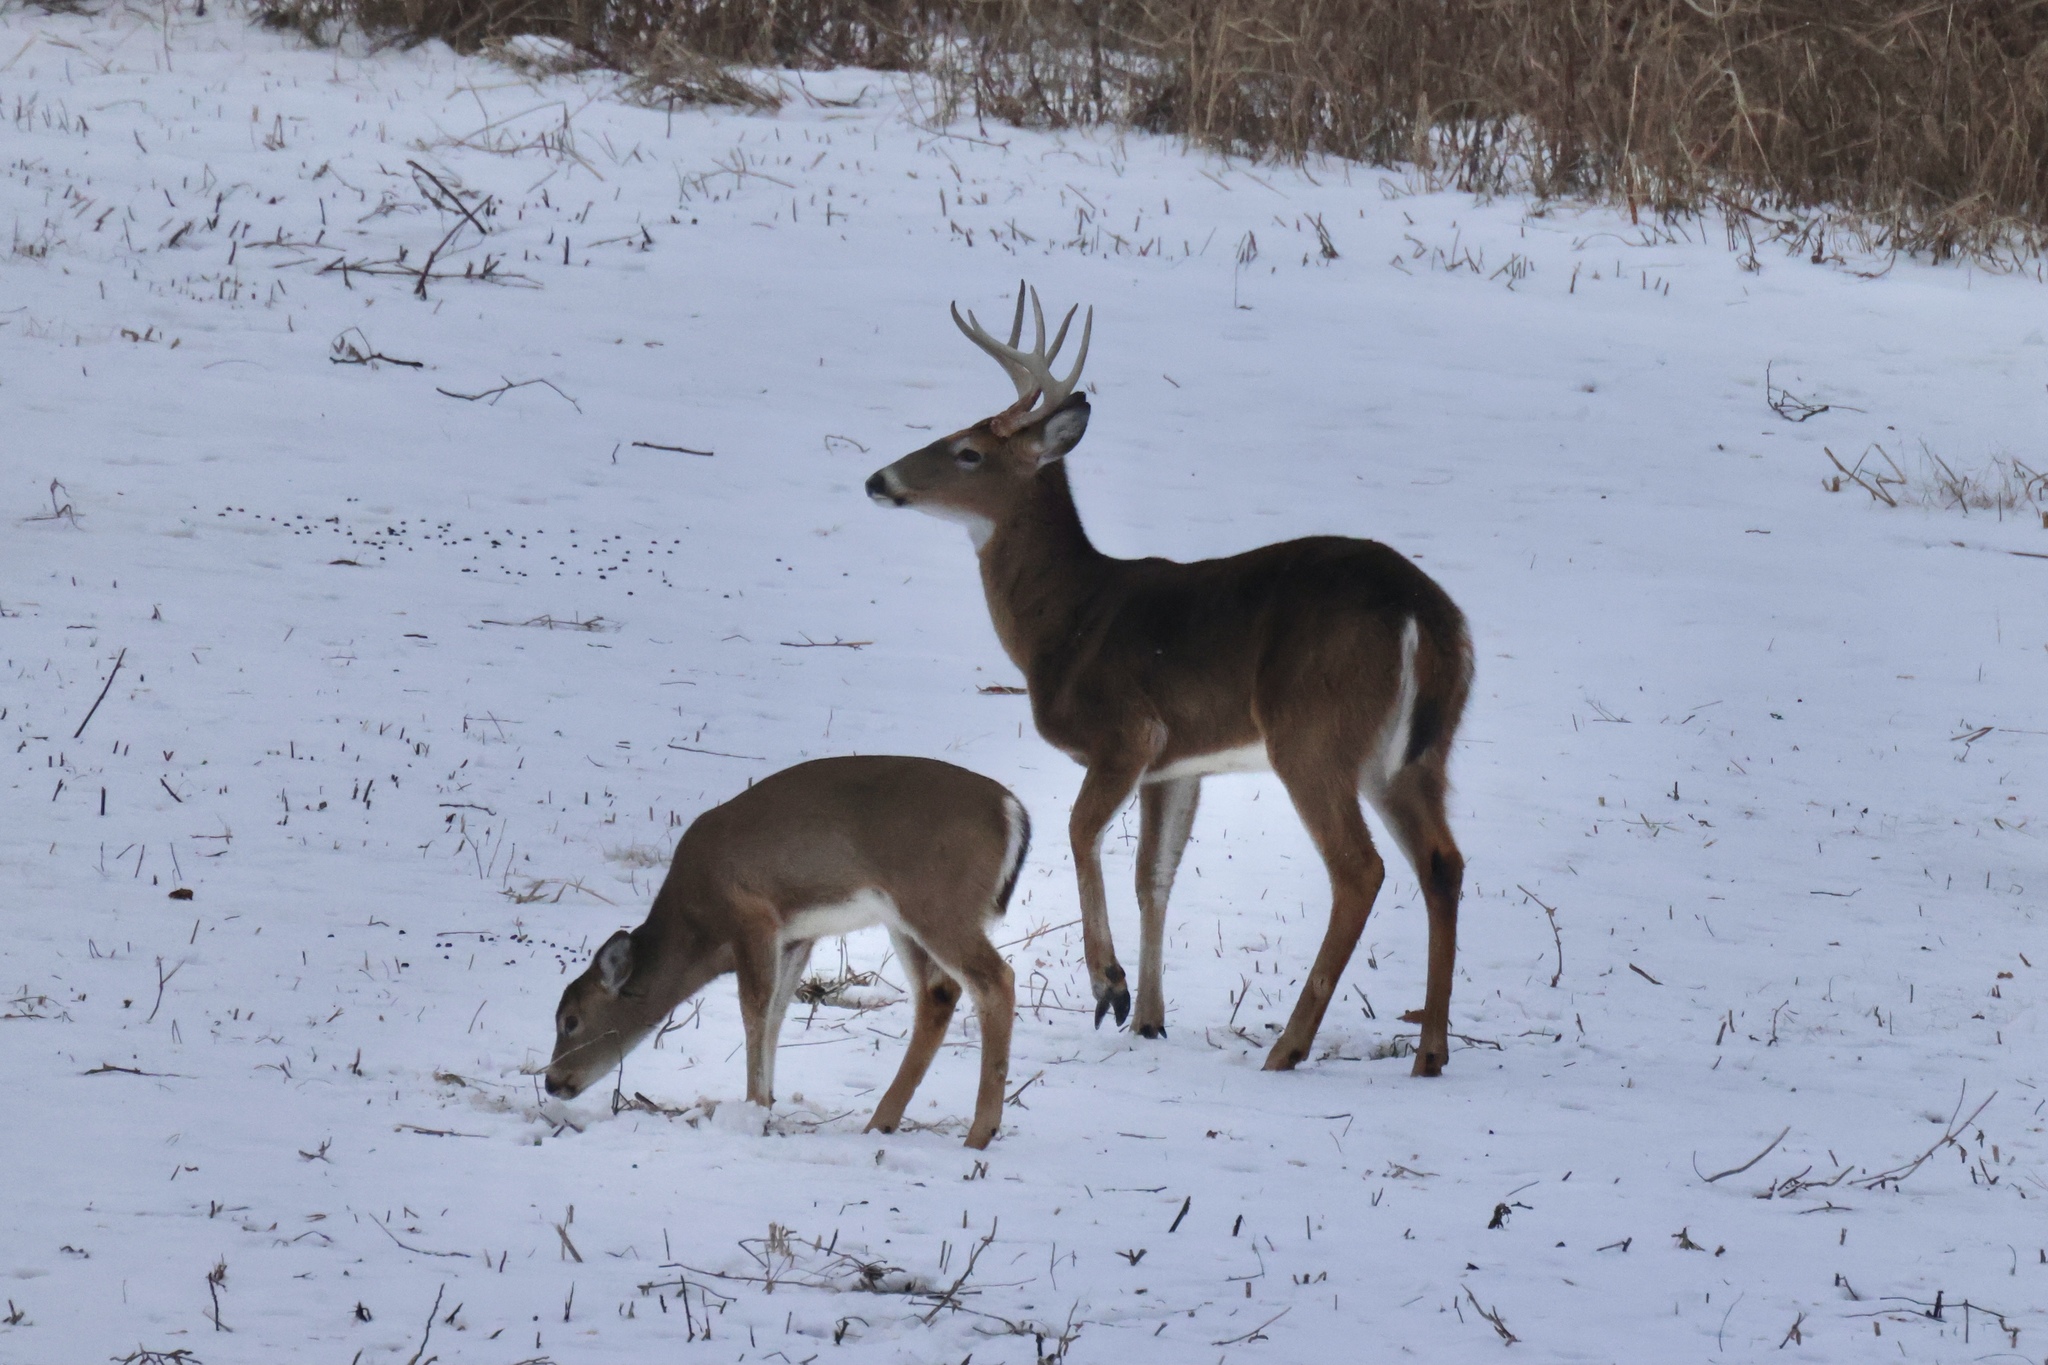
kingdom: Animalia
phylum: Chordata
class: Mammalia
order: Artiodactyla
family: Cervidae
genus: Odocoileus
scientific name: Odocoileus virginianus
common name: White-tailed deer
